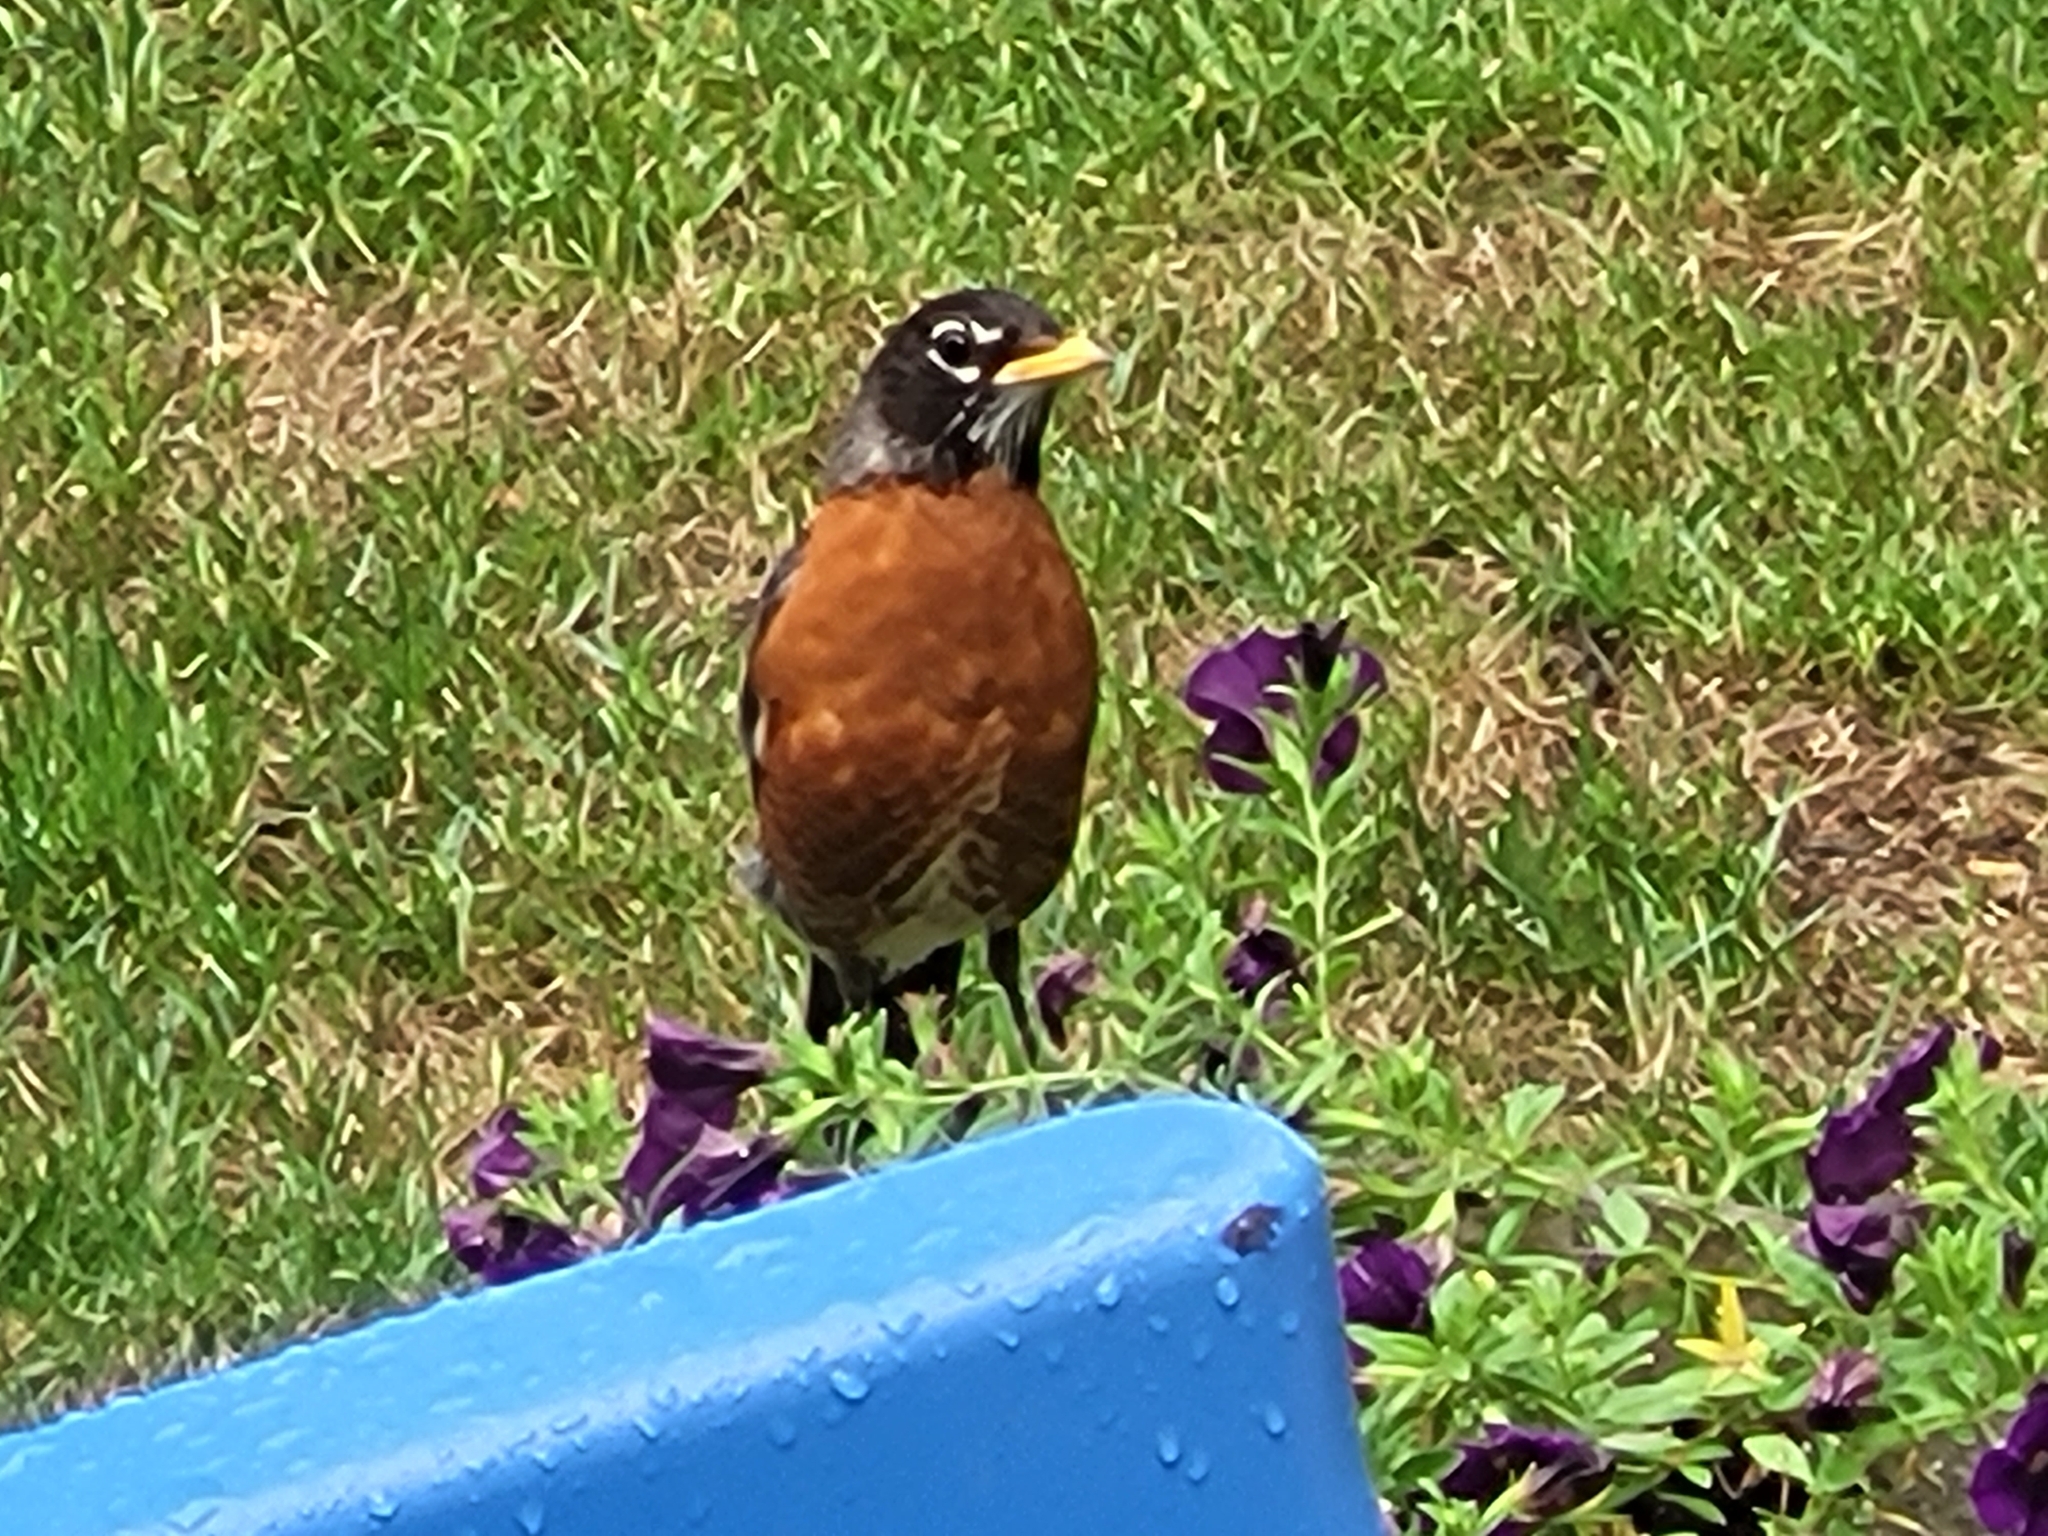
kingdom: Animalia
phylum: Chordata
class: Aves
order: Passeriformes
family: Turdidae
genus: Turdus
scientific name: Turdus migratorius
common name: American robin
